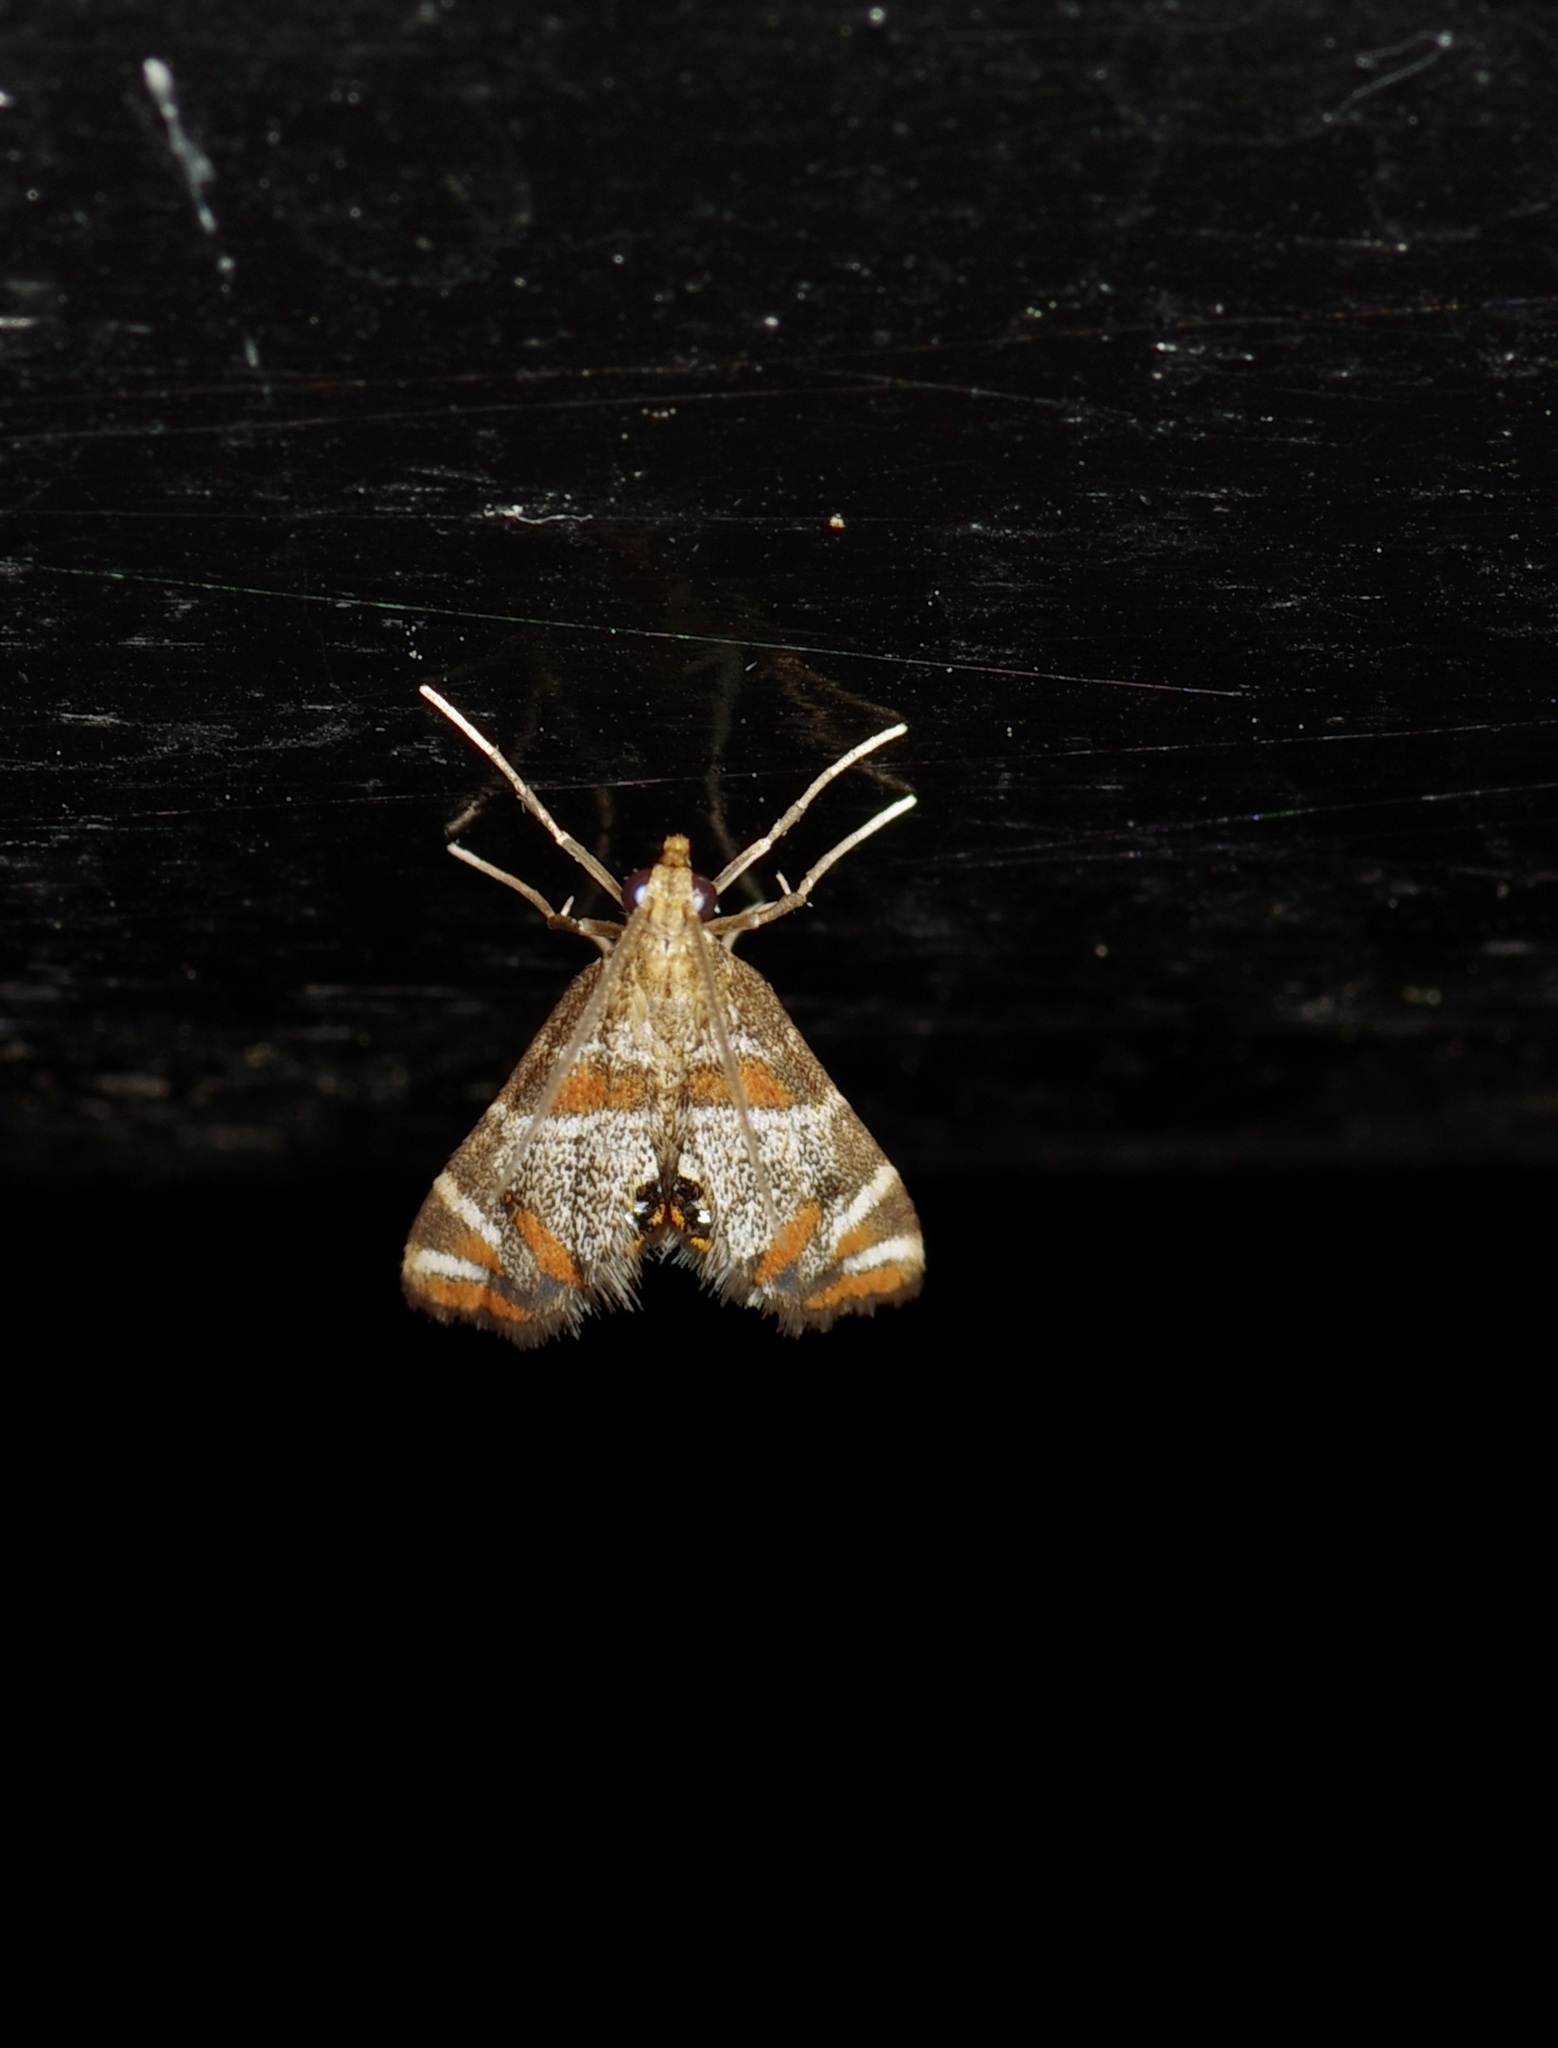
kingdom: Animalia
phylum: Arthropoda
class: Insecta
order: Lepidoptera
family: Crambidae
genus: Petrophila
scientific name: Petrophila jaliscalis
